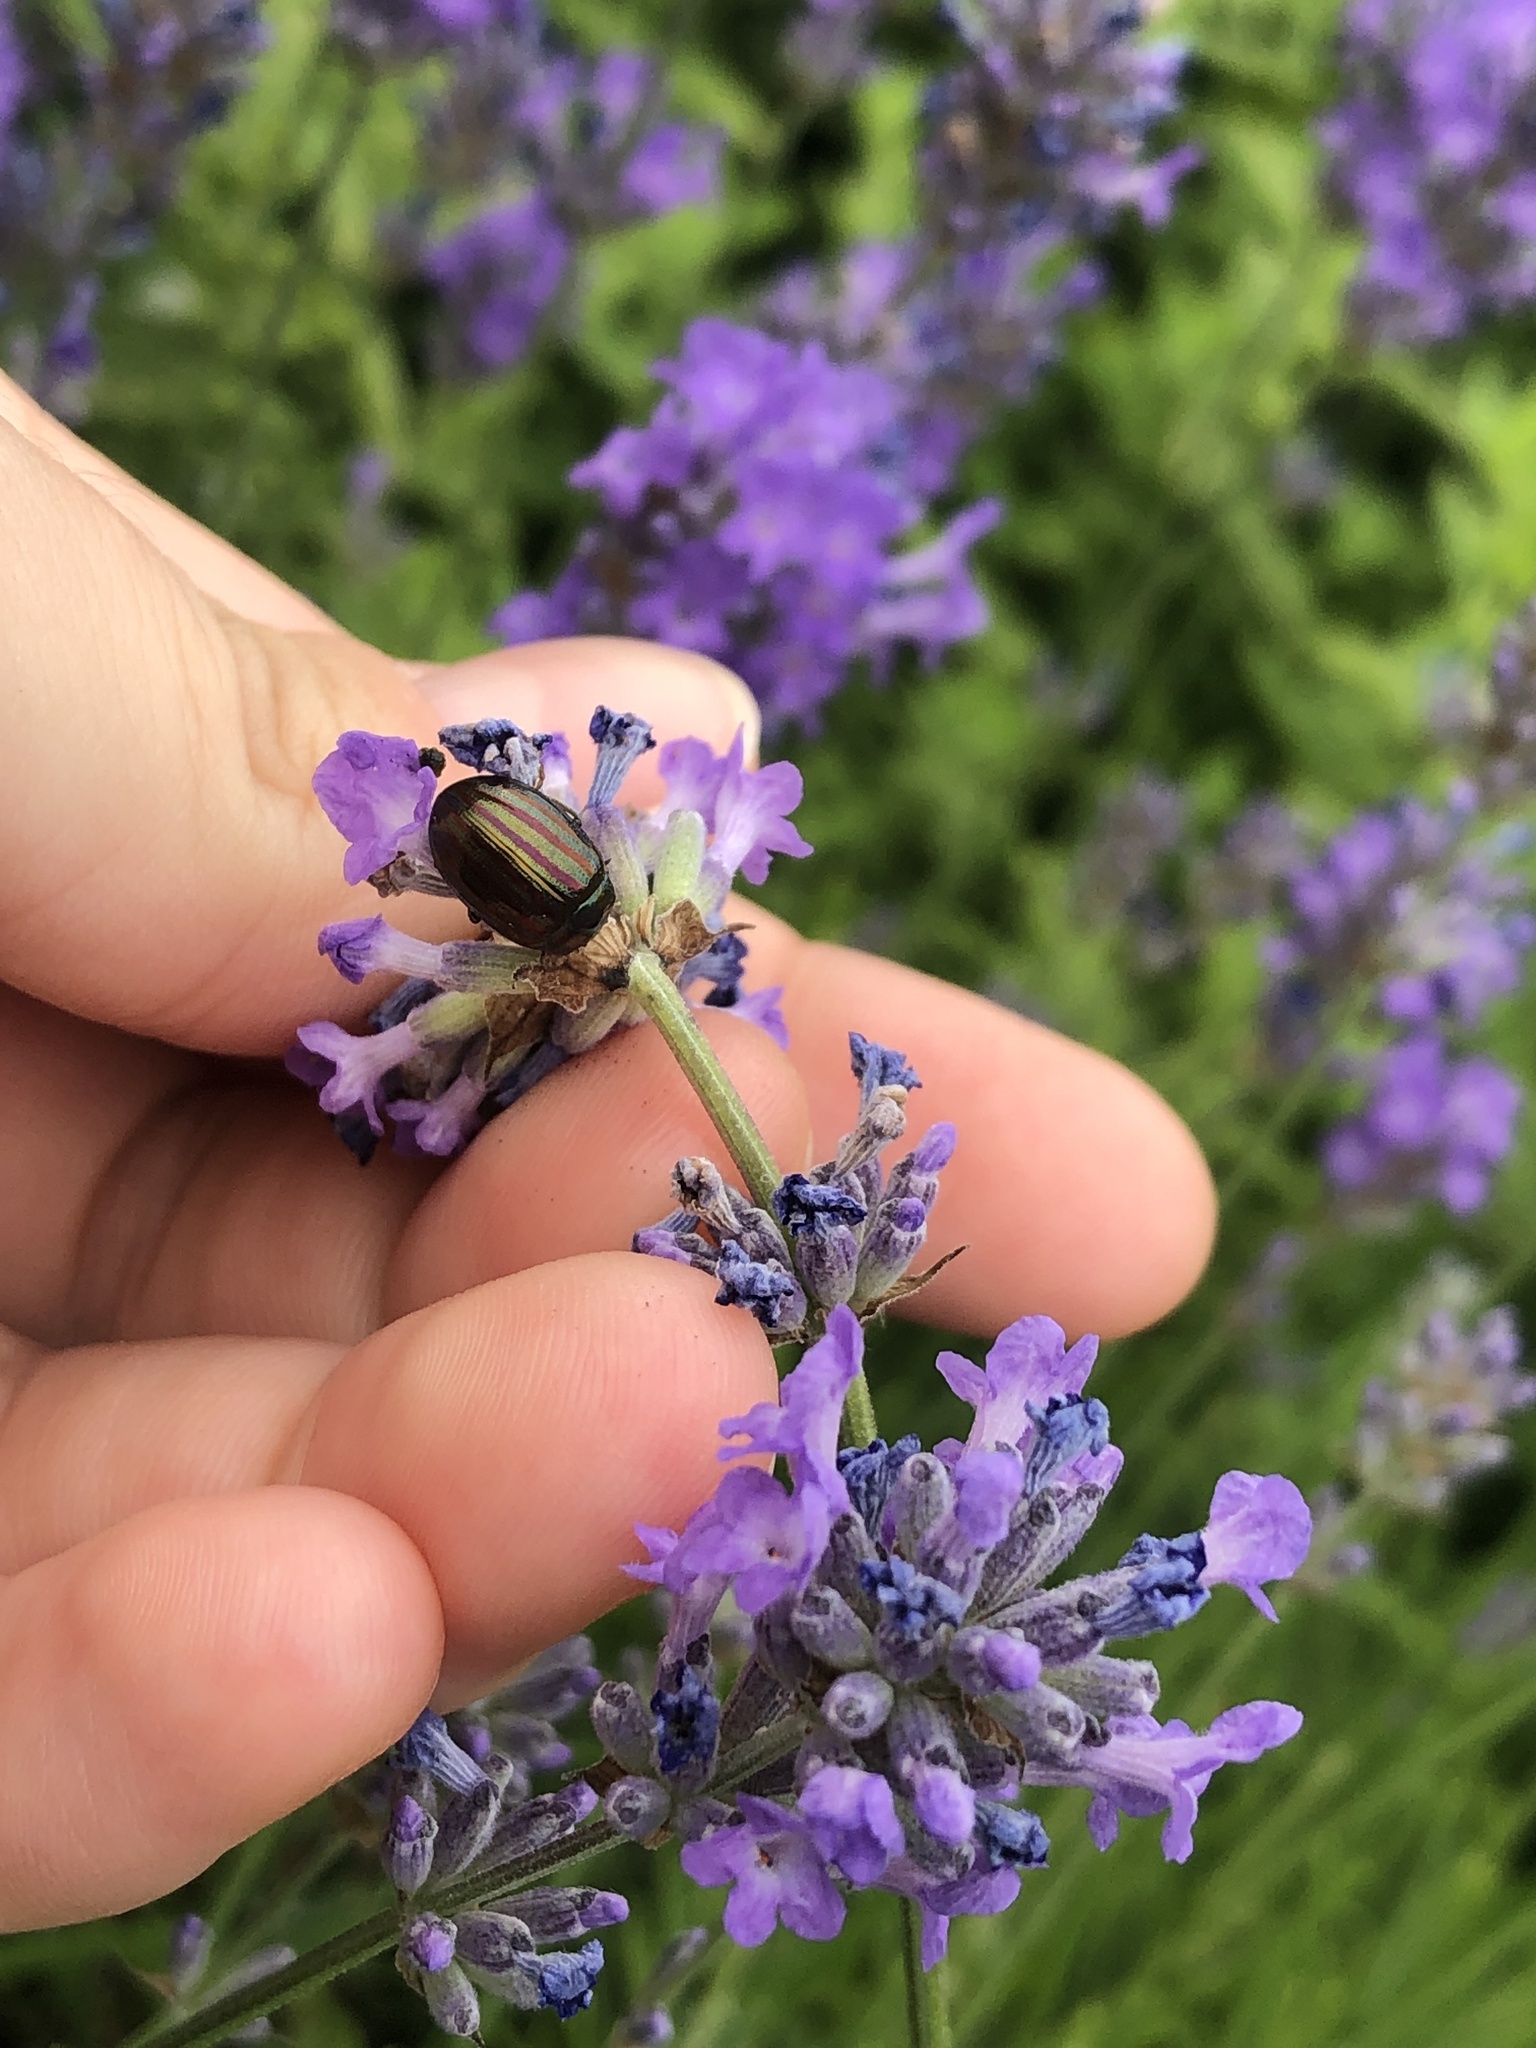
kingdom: Animalia
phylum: Arthropoda
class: Insecta
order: Coleoptera
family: Chrysomelidae
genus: Chrysolina
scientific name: Chrysolina americana
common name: Rosemary beetle
